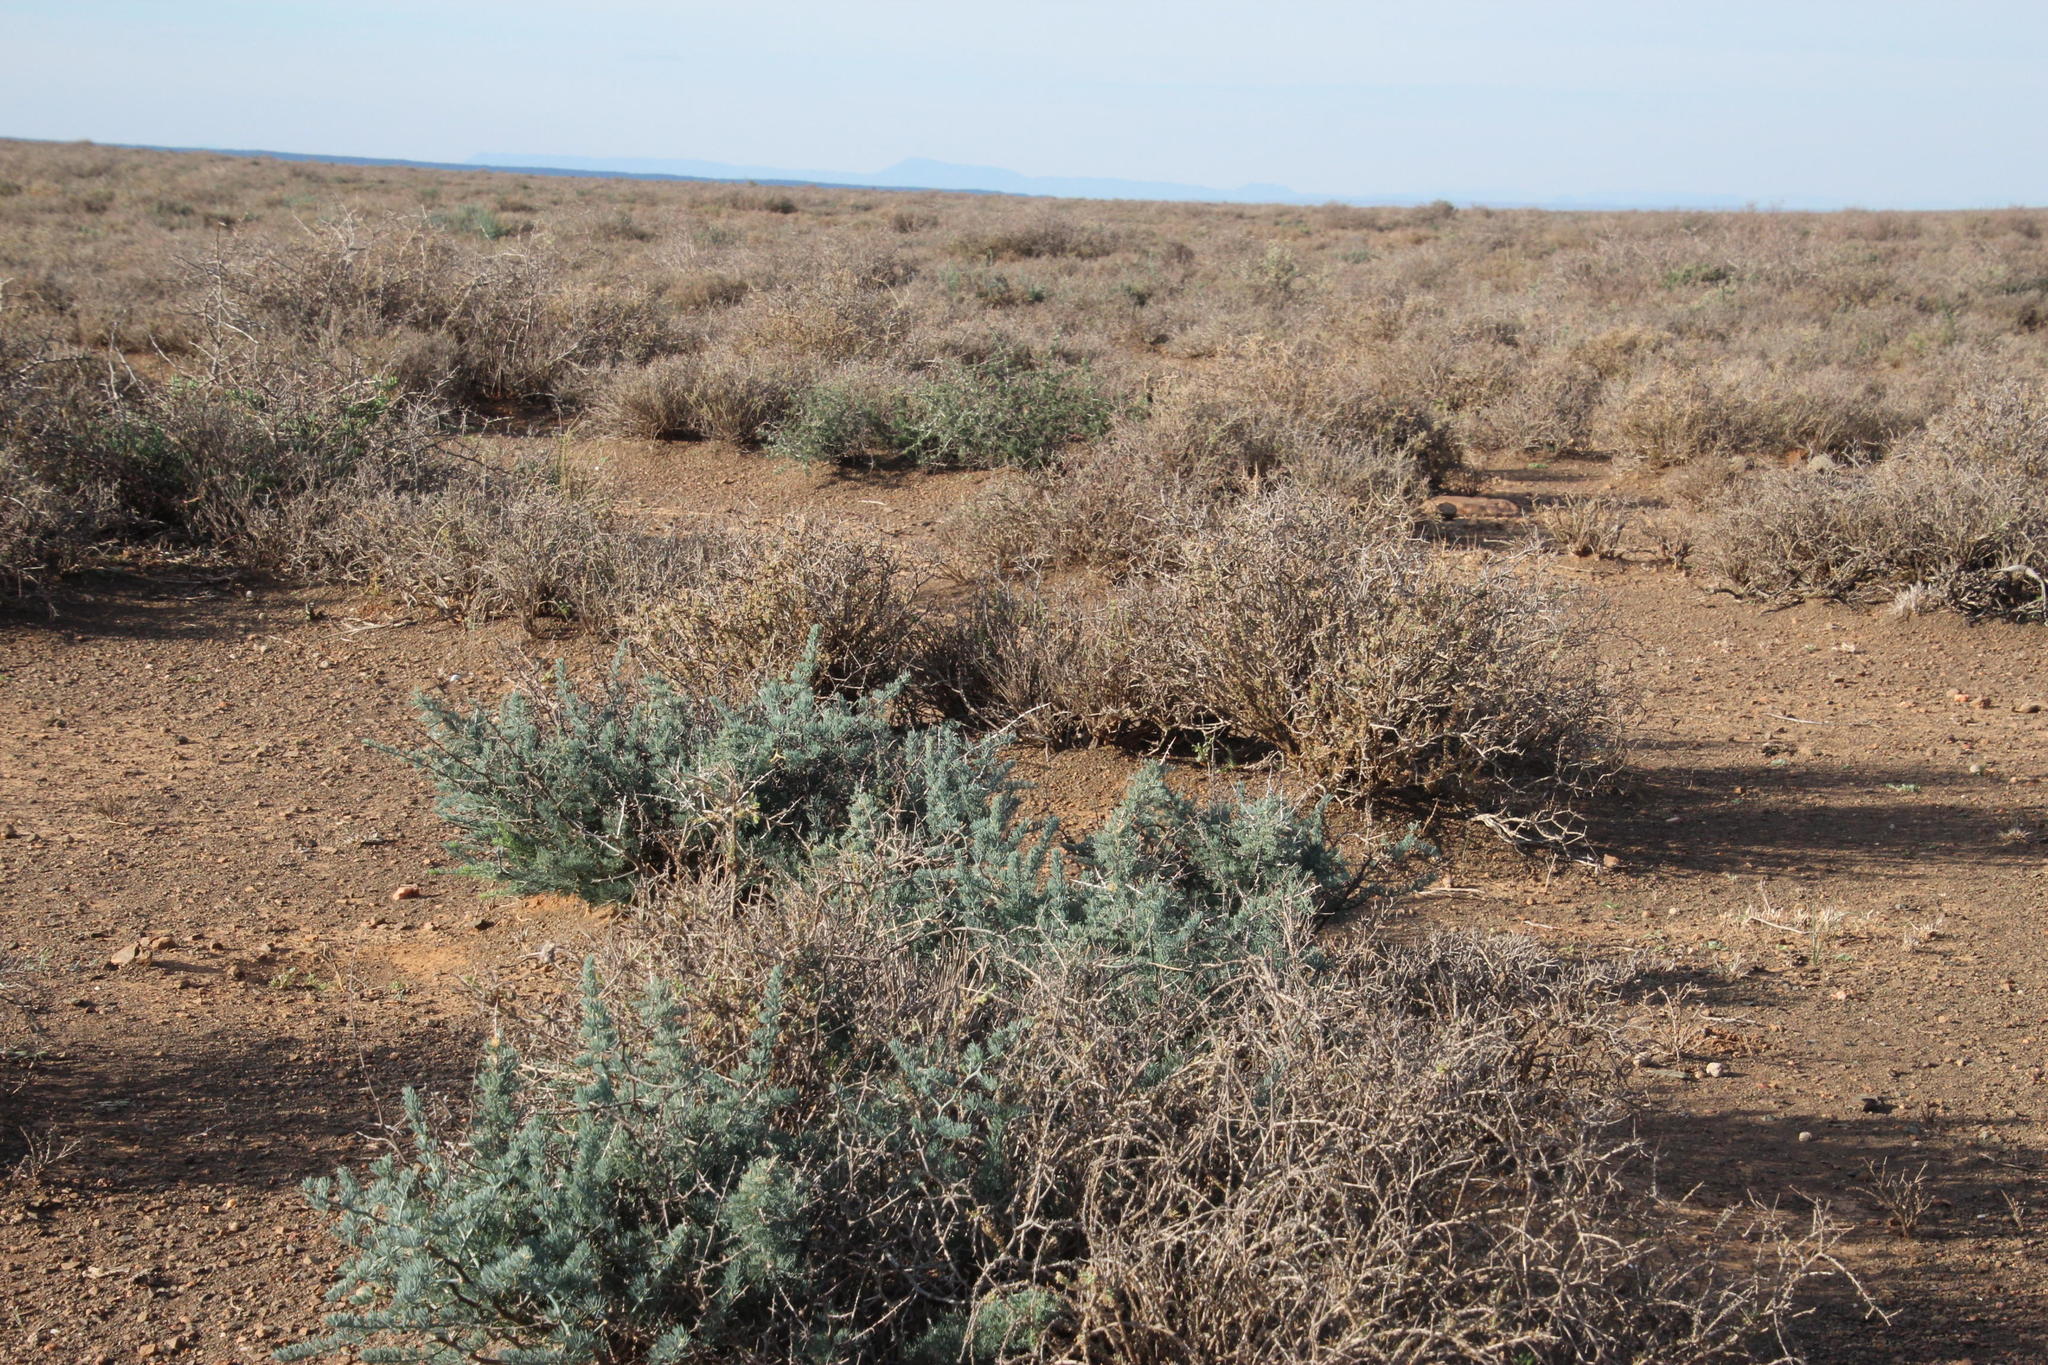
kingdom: Plantae
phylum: Tracheophyta
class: Liliopsida
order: Asparagales
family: Asparagaceae
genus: Asparagus
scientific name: Asparagus glaucus
